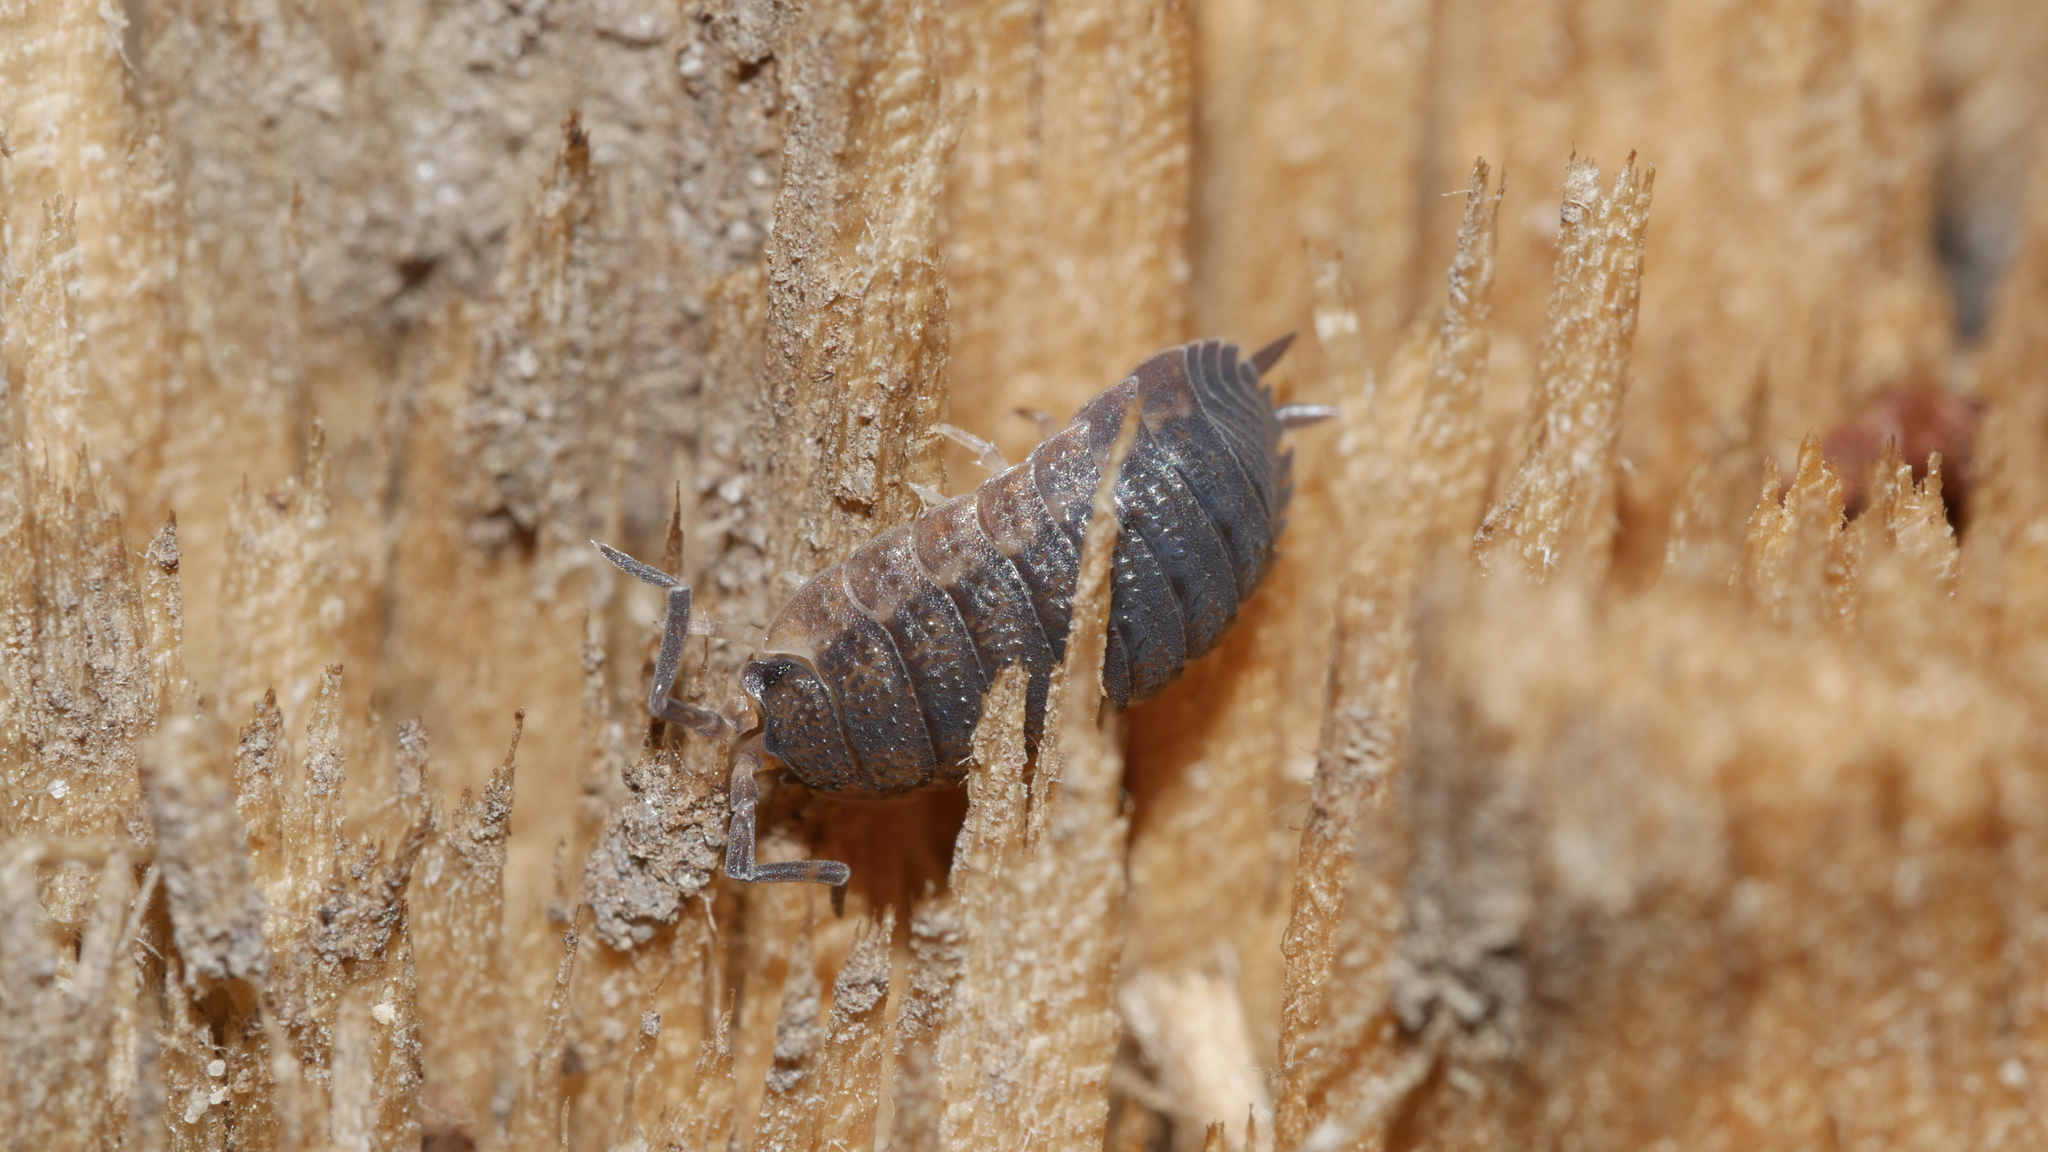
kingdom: Animalia
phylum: Arthropoda
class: Malacostraca
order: Isopoda
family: Porcellionidae
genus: Porcellio
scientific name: Porcellio scaber
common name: Common rough woodlouse
